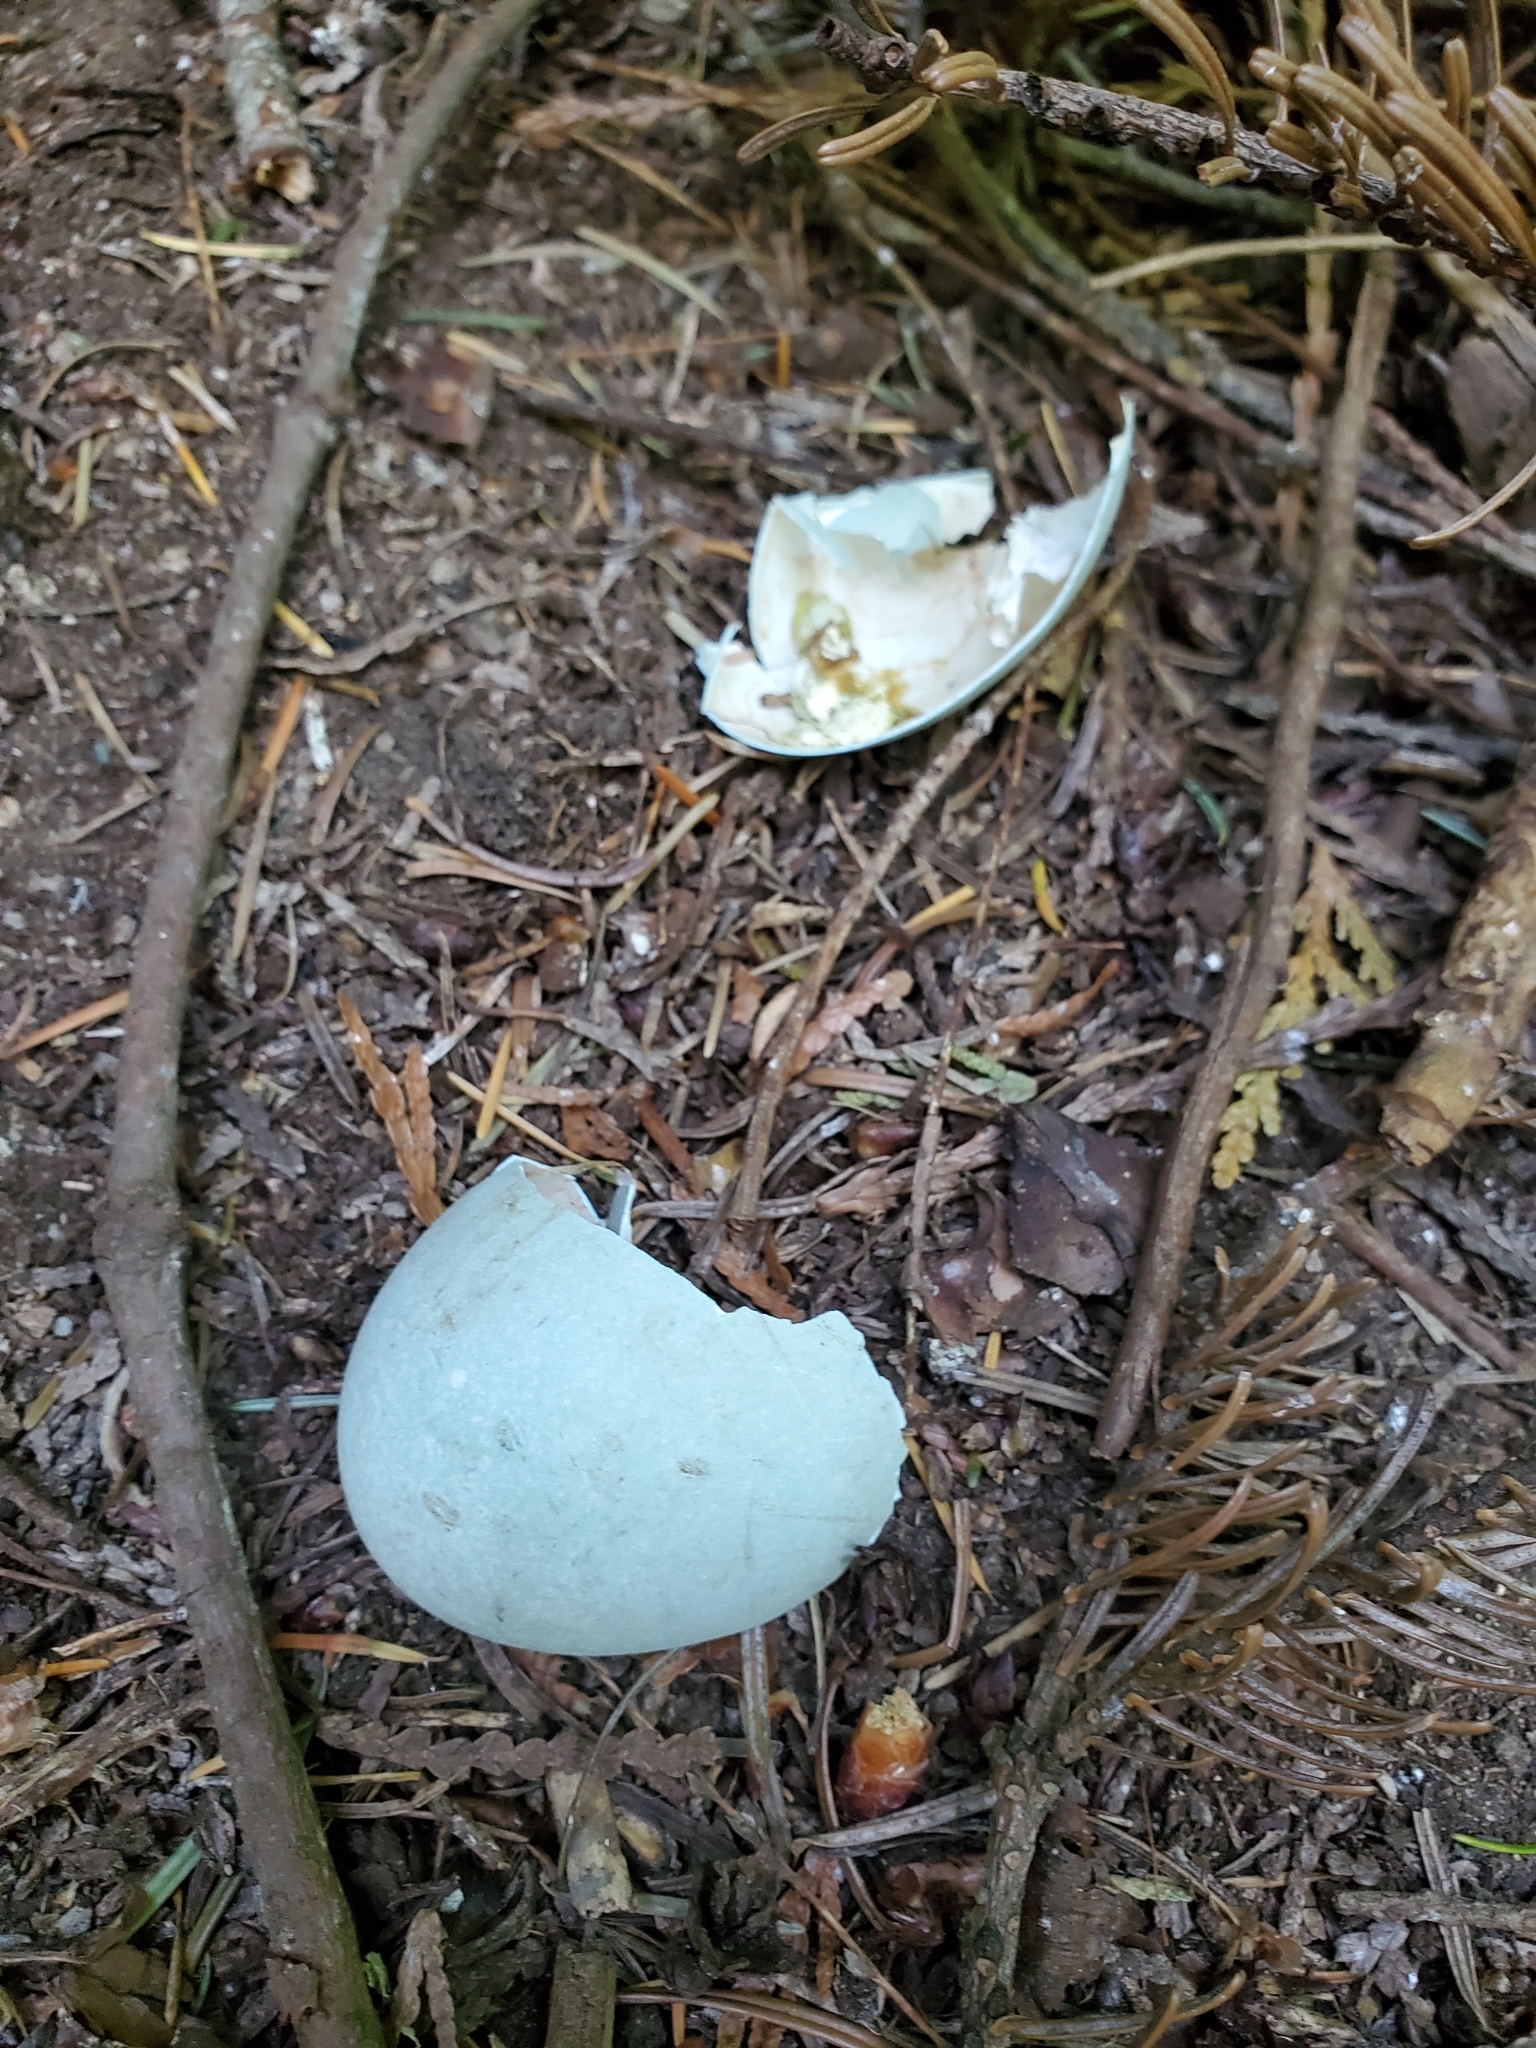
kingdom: Animalia
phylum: Chordata
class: Aves
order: Pelecaniformes
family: Ardeidae
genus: Ardea
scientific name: Ardea herodias
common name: Great blue heron
